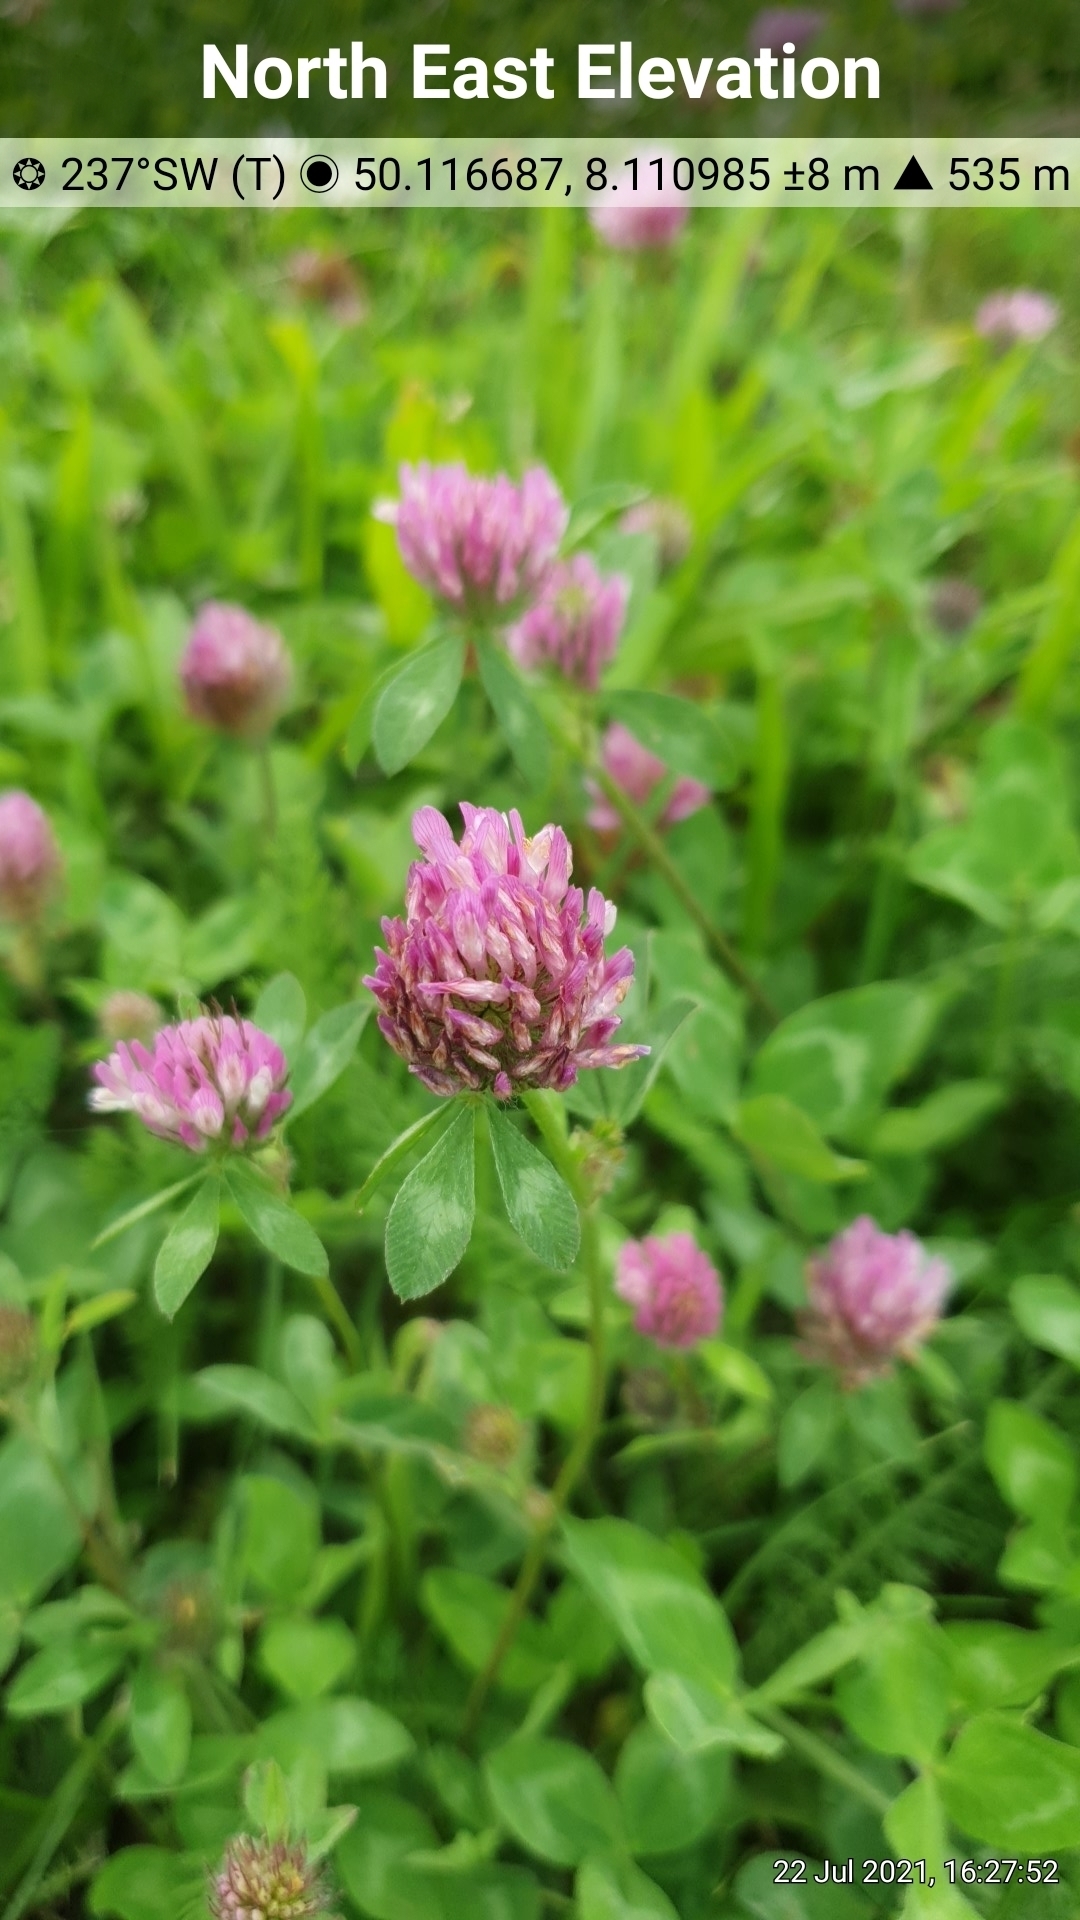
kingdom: Plantae
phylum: Tracheophyta
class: Magnoliopsida
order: Fabales
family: Fabaceae
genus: Trifolium
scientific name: Trifolium pratense
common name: Red clover
